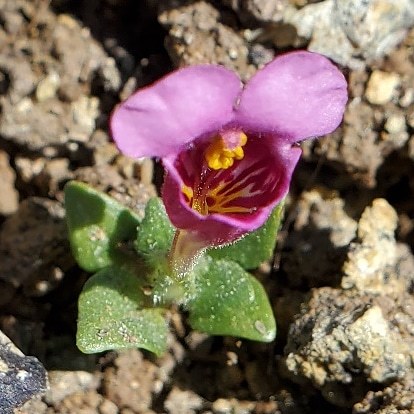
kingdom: Plantae
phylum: Tracheophyta
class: Magnoliopsida
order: Lamiales
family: Phrymaceae
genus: Diplacus
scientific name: Diplacus douglasii
